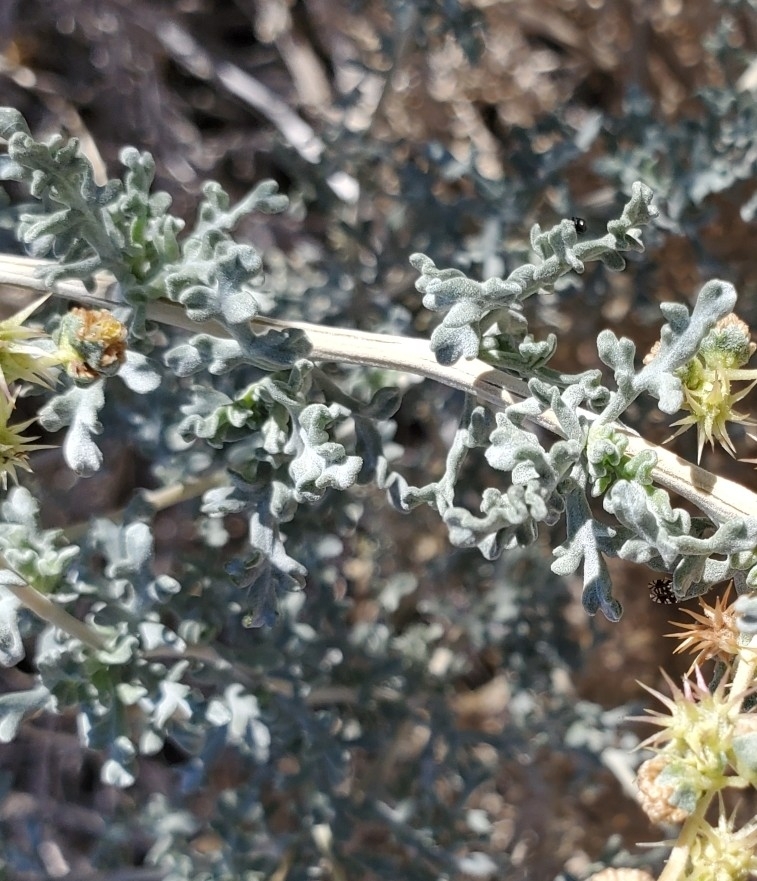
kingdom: Plantae
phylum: Tracheophyta
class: Magnoliopsida
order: Asterales
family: Asteraceae
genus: Ambrosia
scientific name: Ambrosia dumosa
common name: Bur-sage
